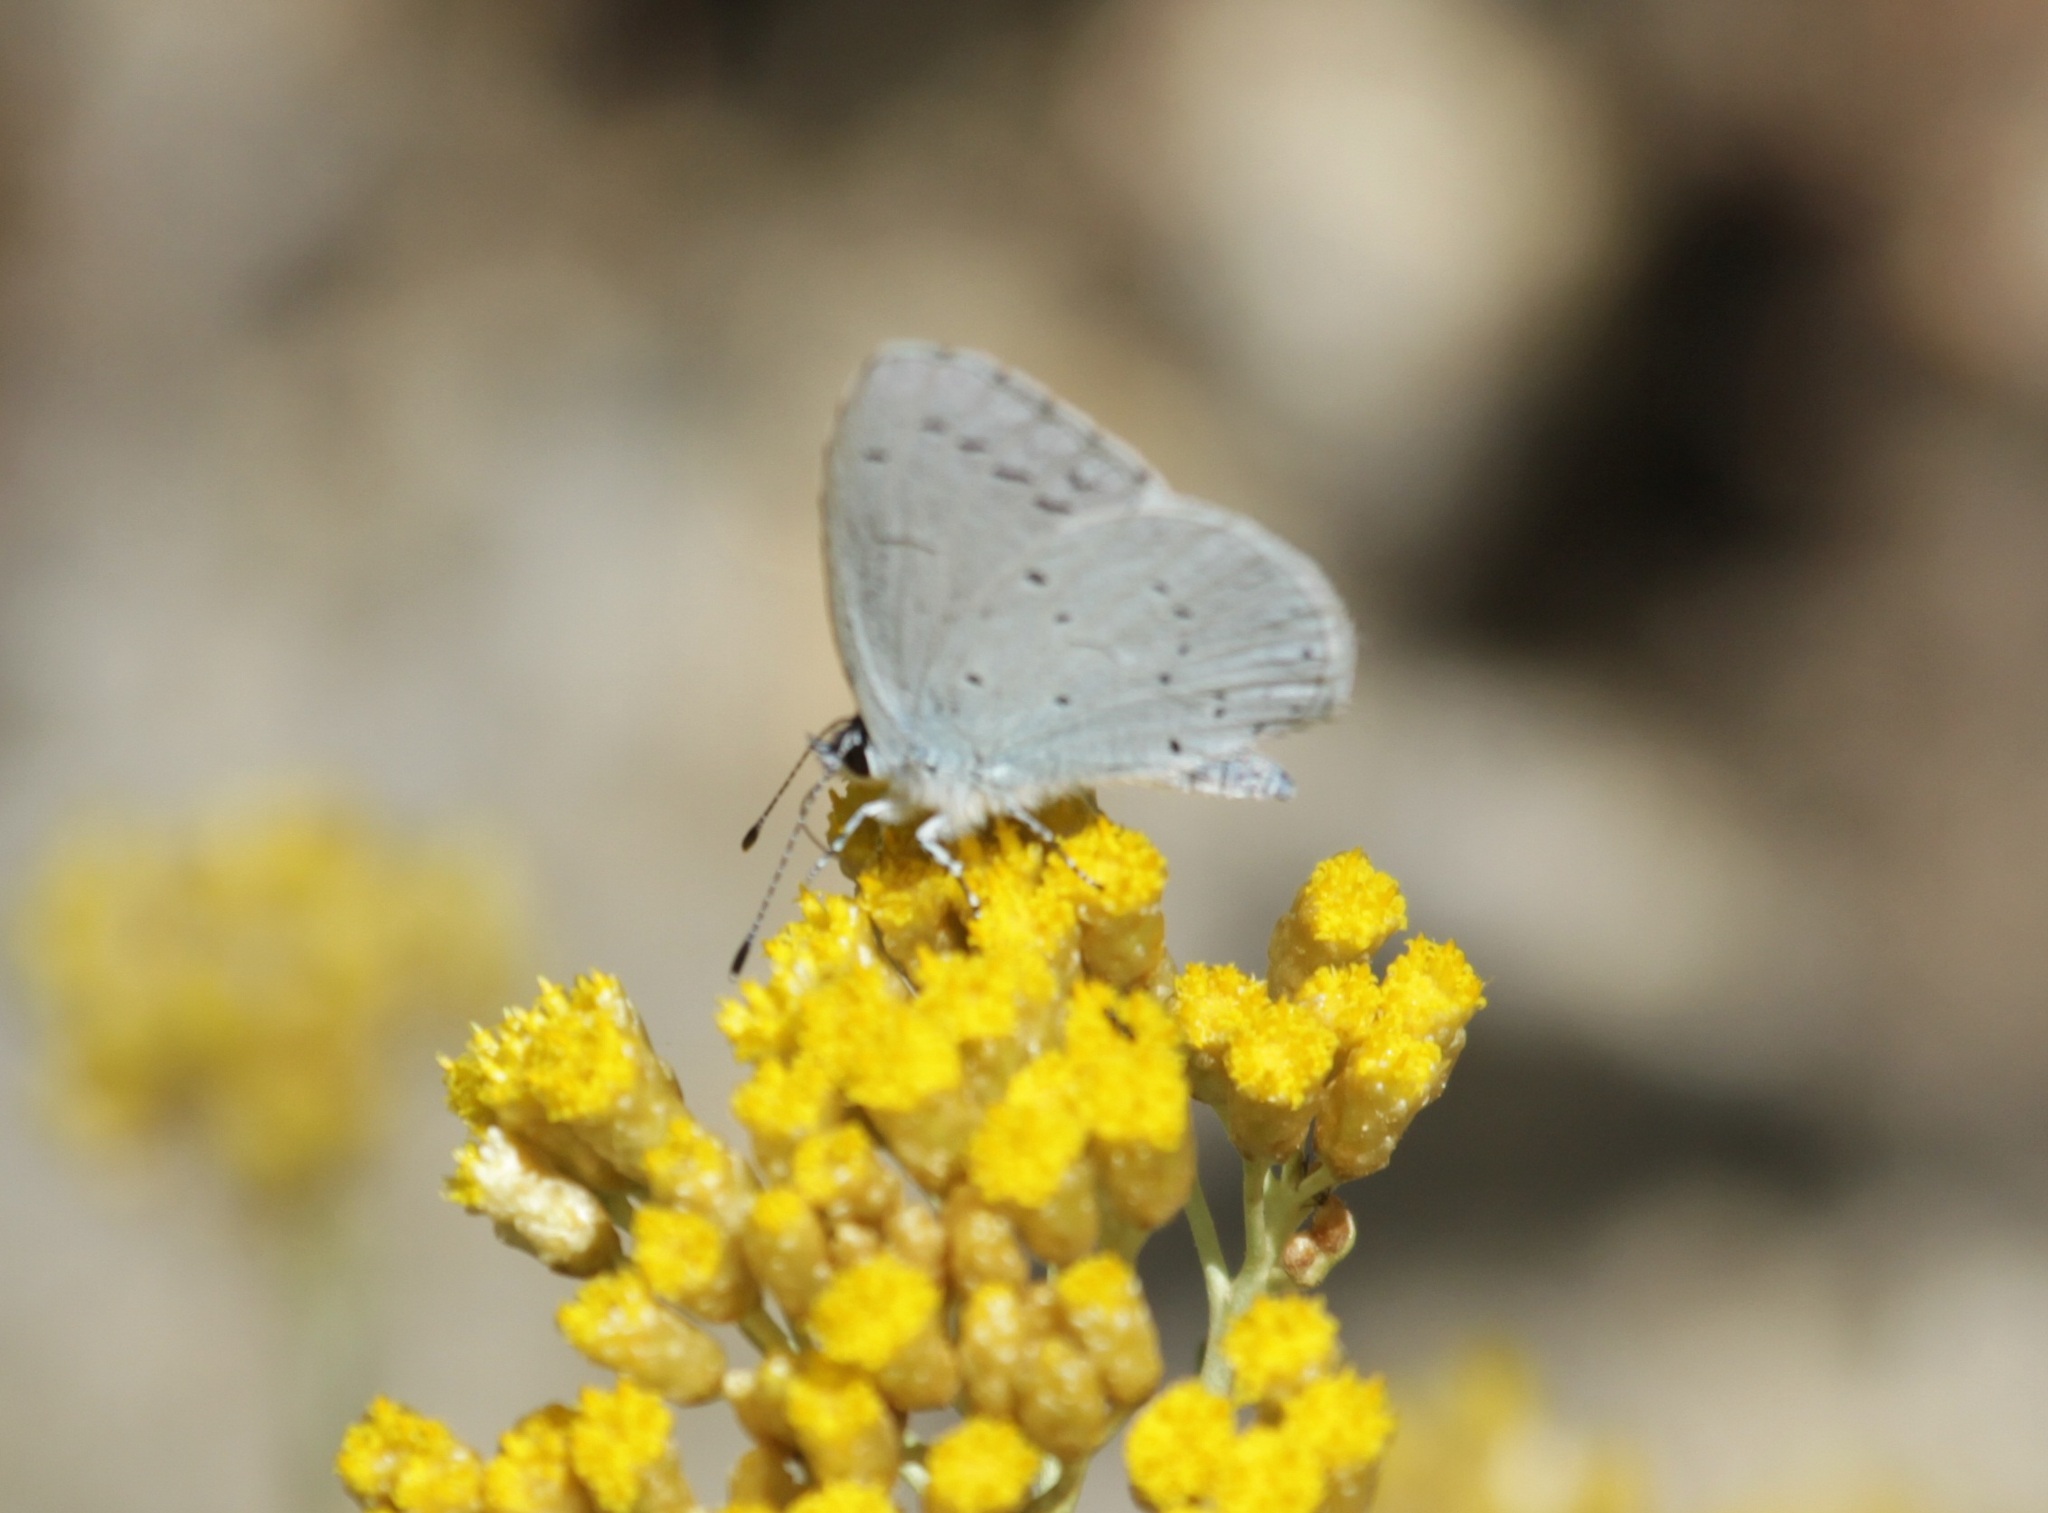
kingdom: Animalia
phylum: Arthropoda
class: Insecta
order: Lepidoptera
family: Lycaenidae
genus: Celastrina
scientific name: Celastrina argiolus
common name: Holly blue
